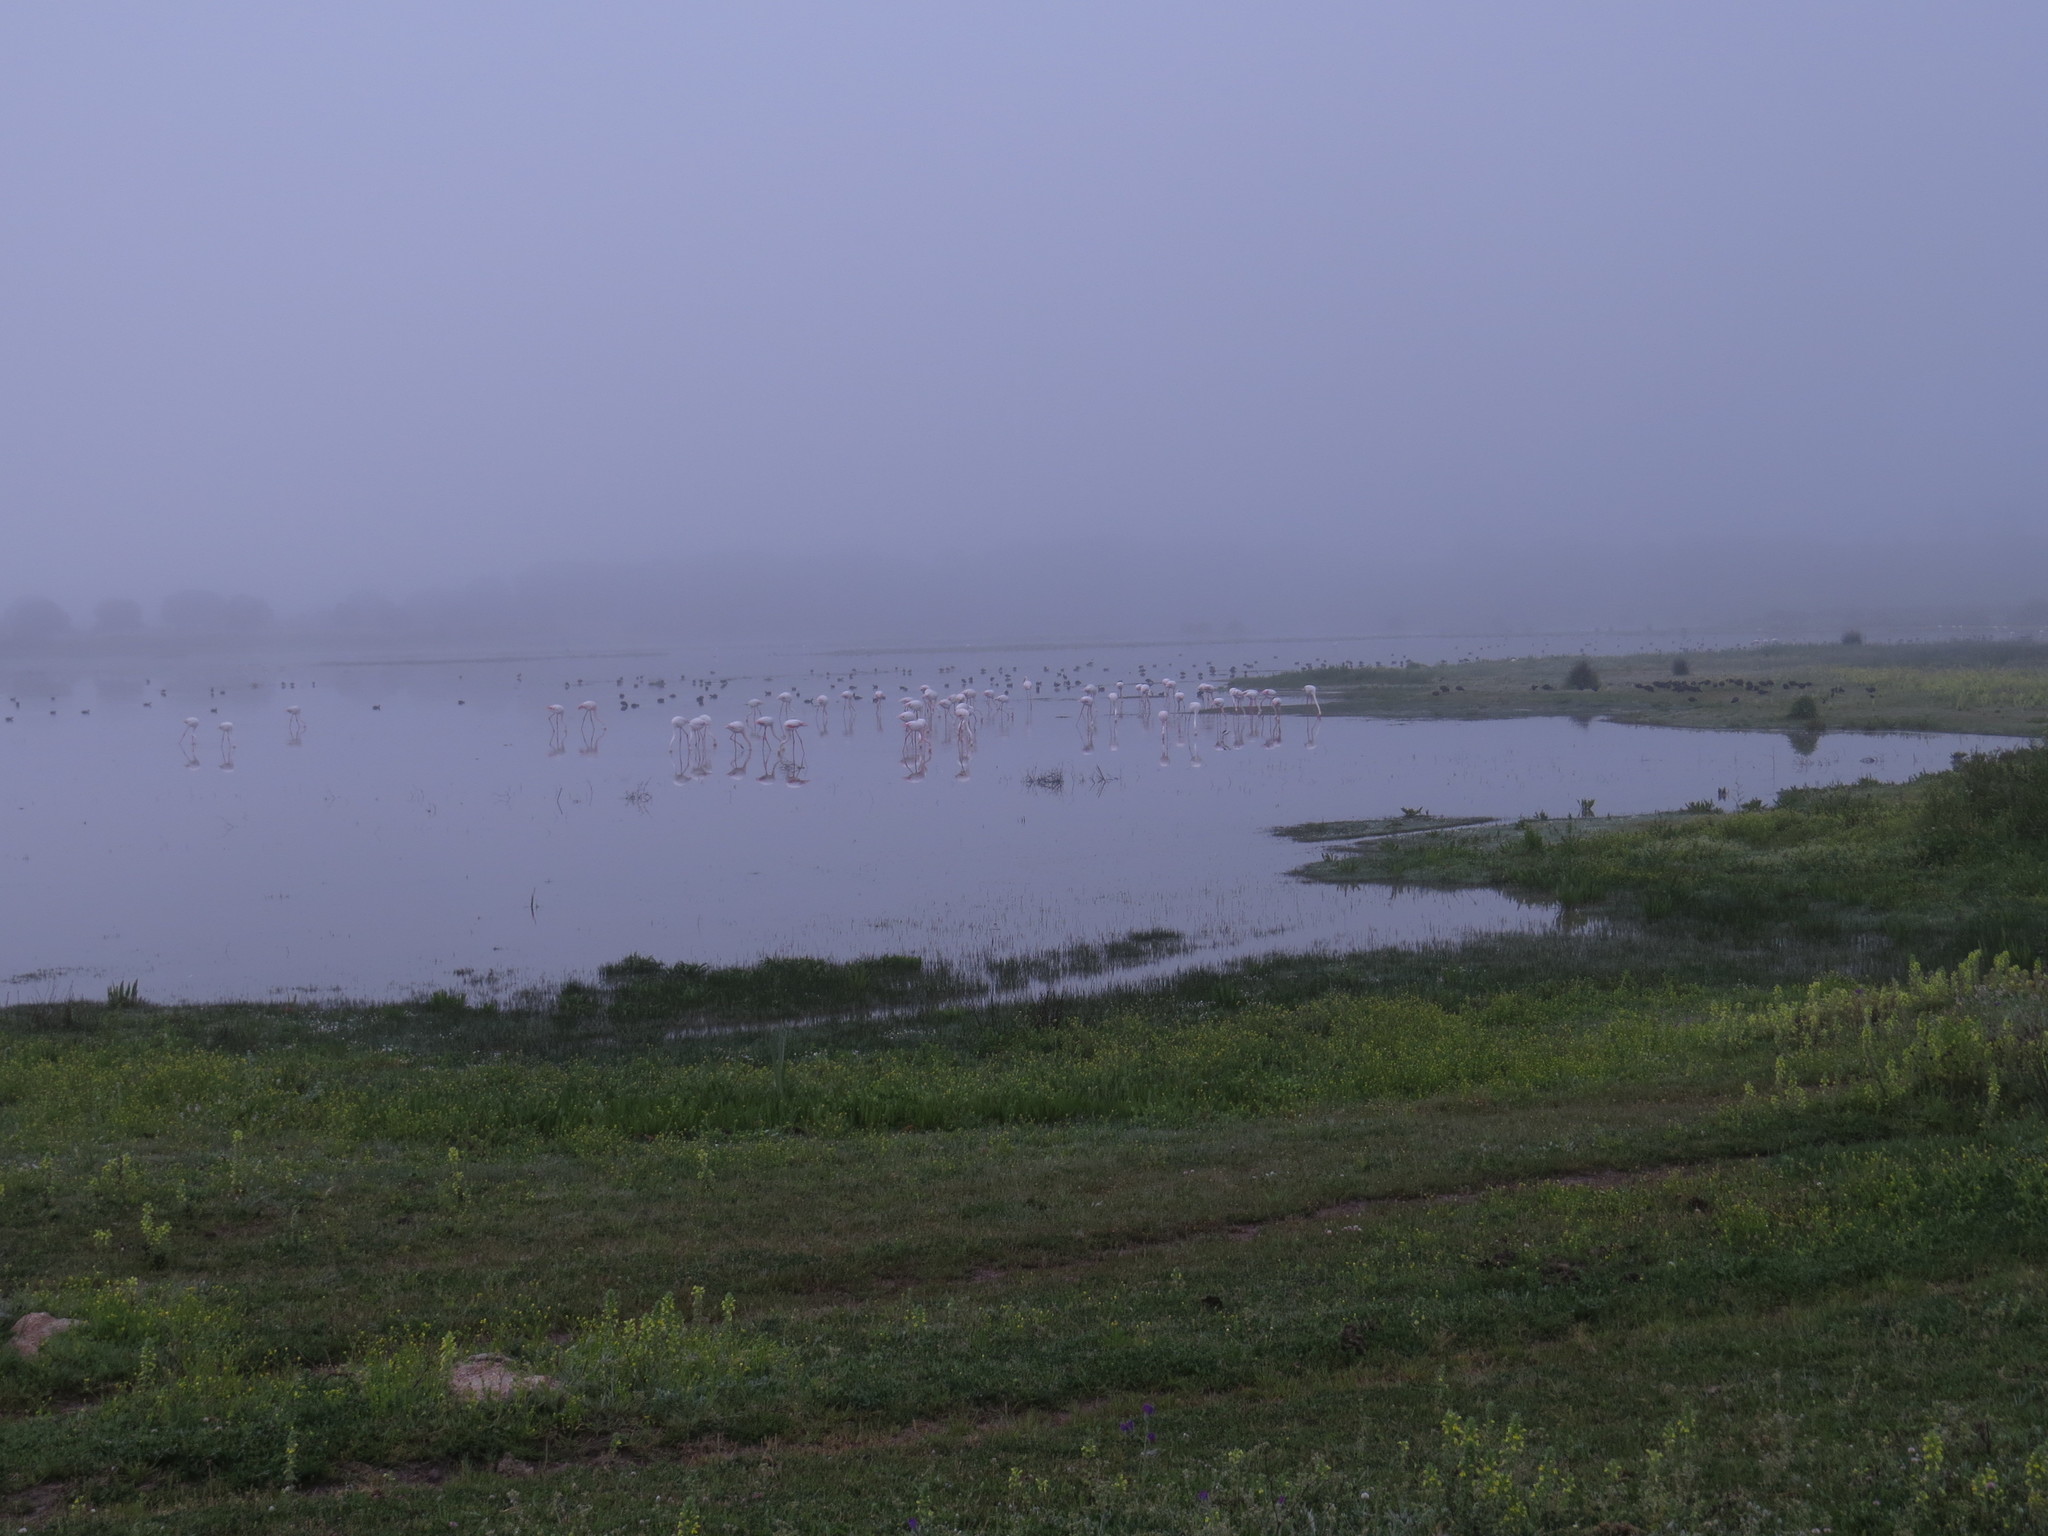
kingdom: Animalia
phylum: Chordata
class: Aves
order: Phoenicopteriformes
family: Phoenicopteridae
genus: Phoenicopterus
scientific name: Phoenicopterus roseus
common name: Greater flamingo
